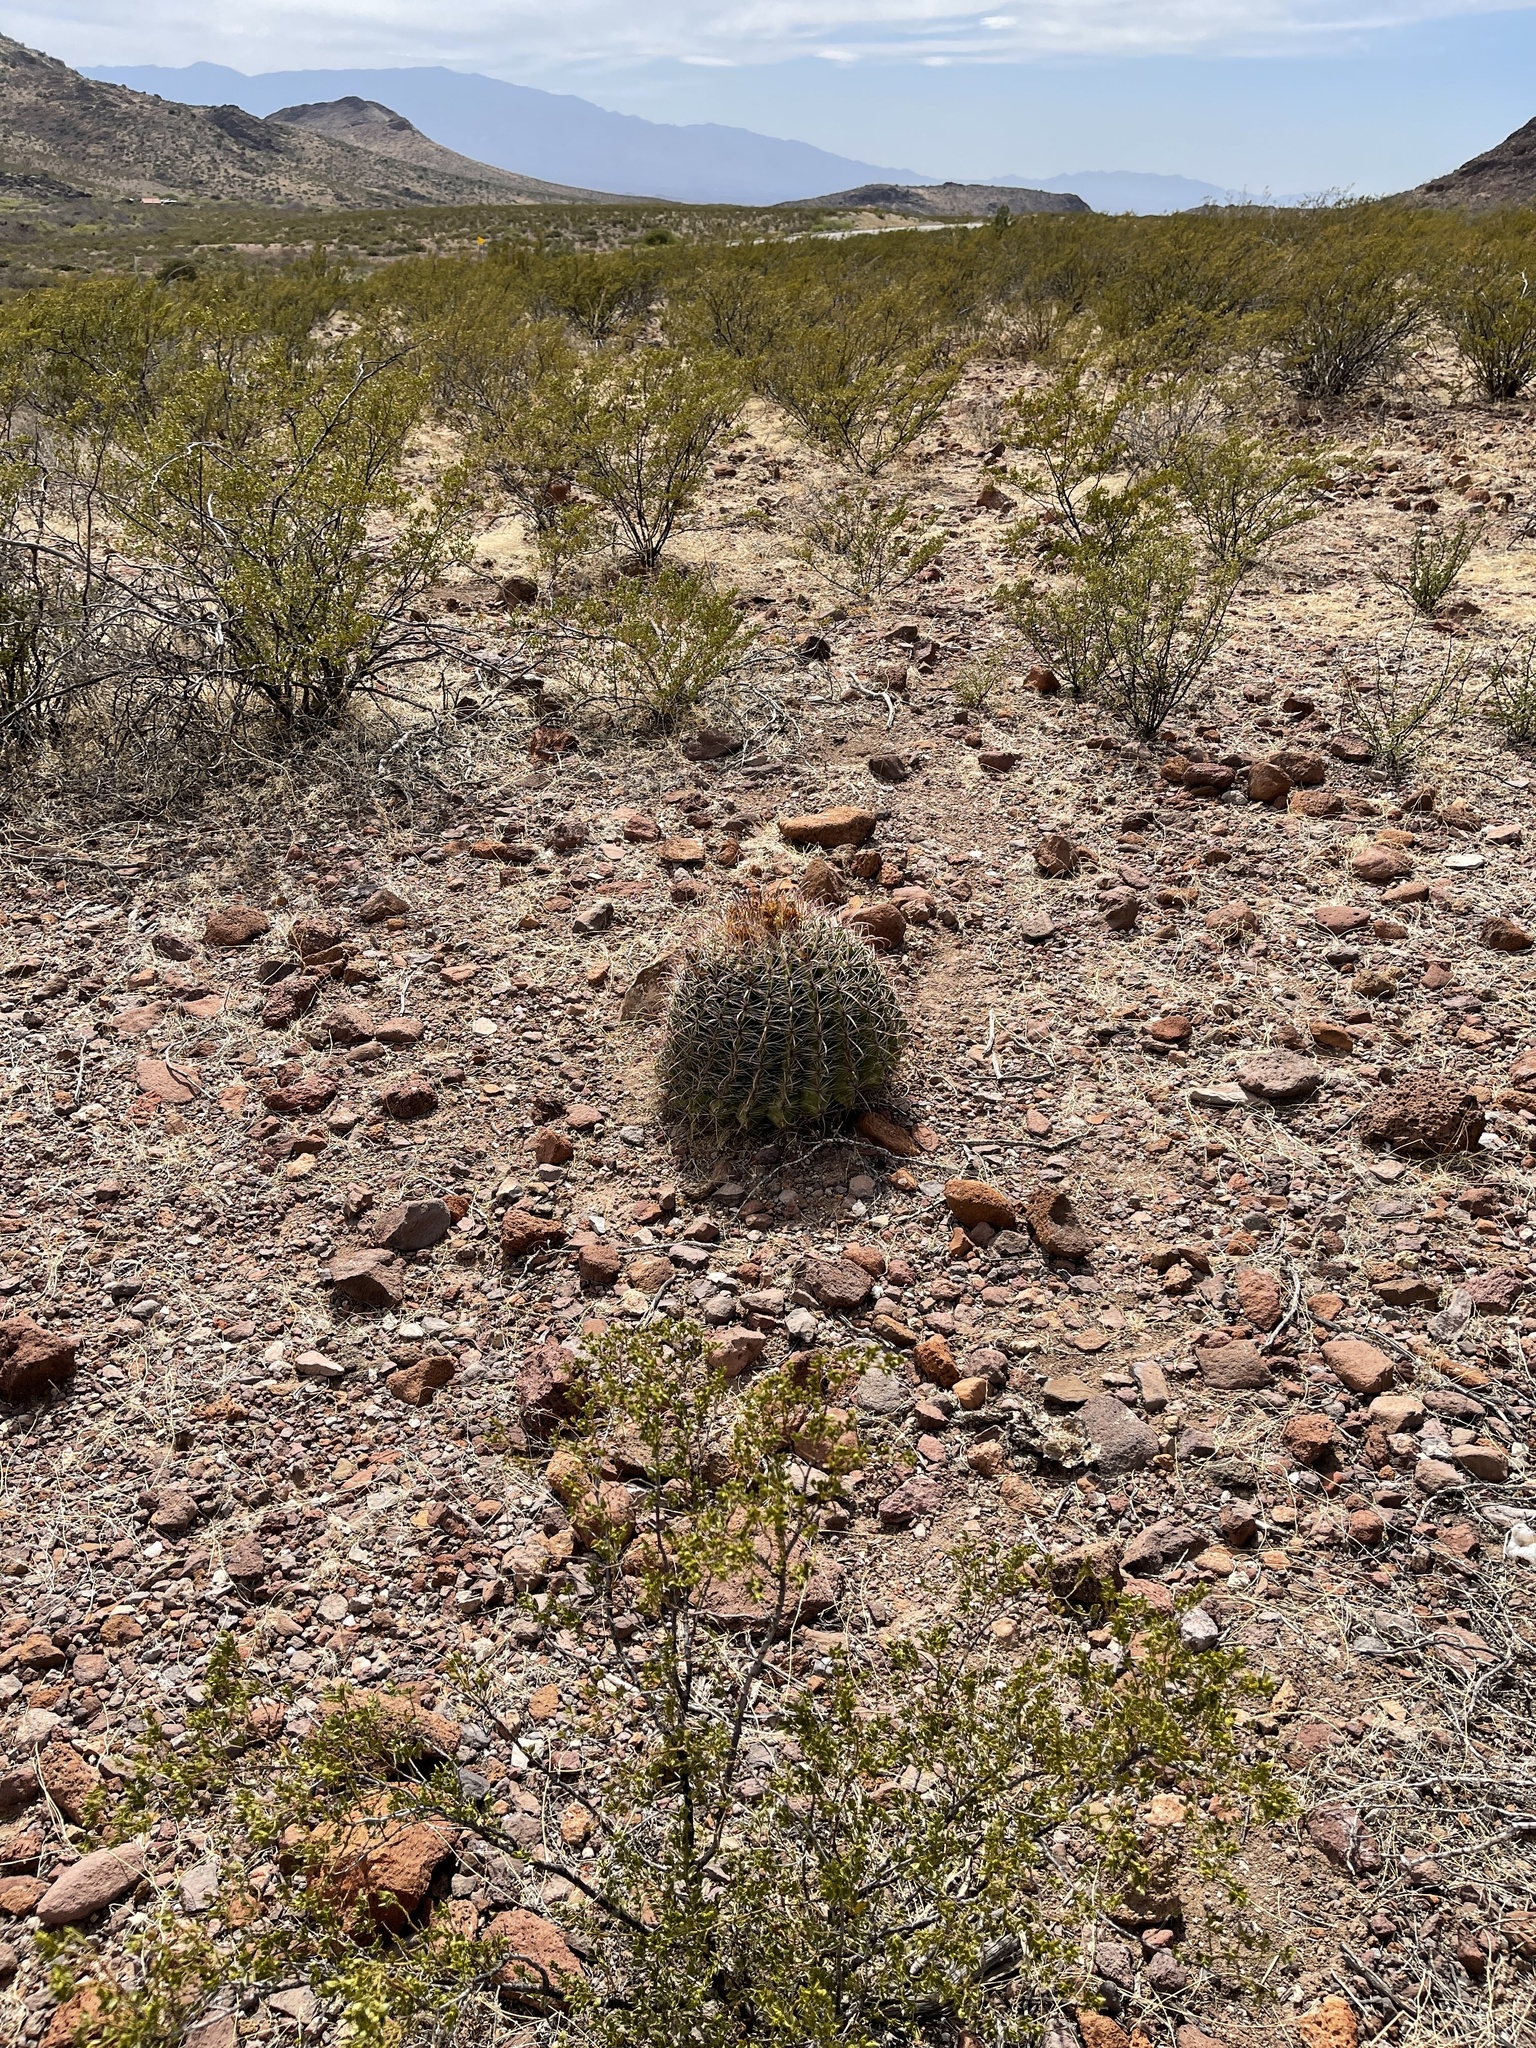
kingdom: Plantae
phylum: Tracheophyta
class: Magnoliopsida
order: Caryophyllales
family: Cactaceae
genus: Ferocactus
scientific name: Ferocactus wislizeni
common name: Candy barrel cactus
